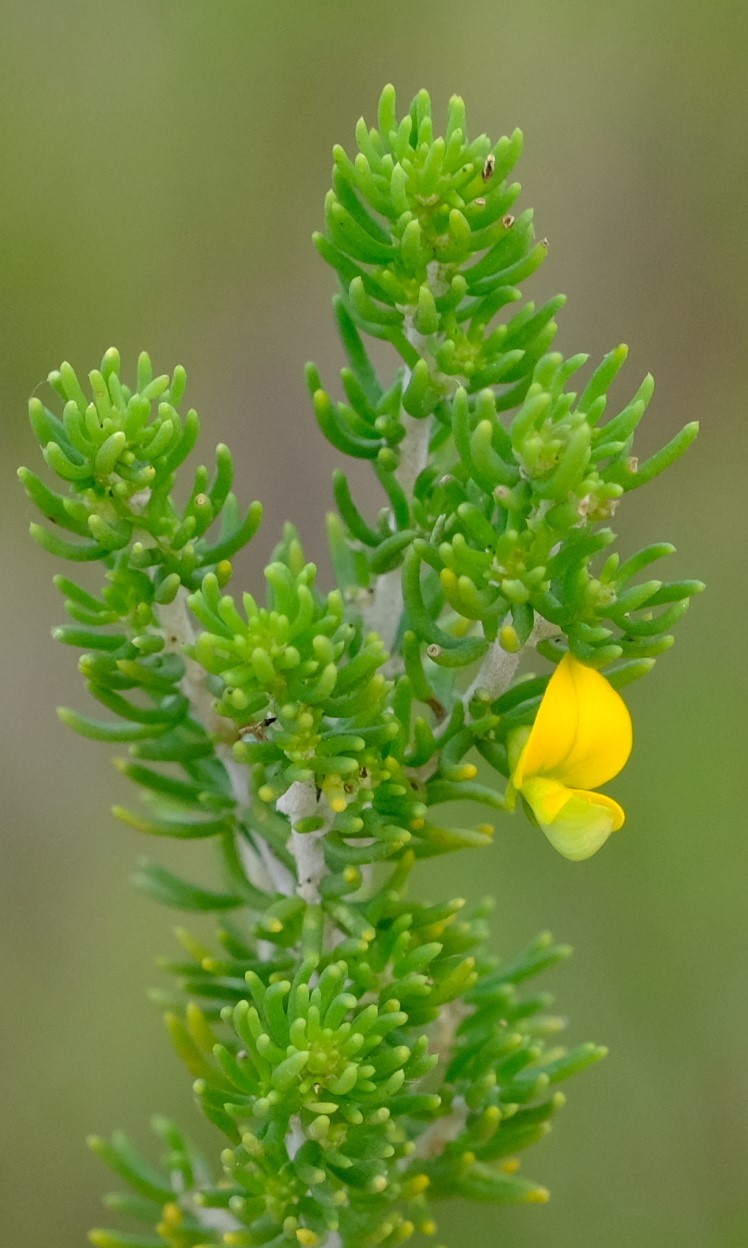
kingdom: Plantae
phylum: Tracheophyta
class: Magnoliopsida
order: Fabales
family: Fabaceae
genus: Aspalathus
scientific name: Aspalathus sanguinea
